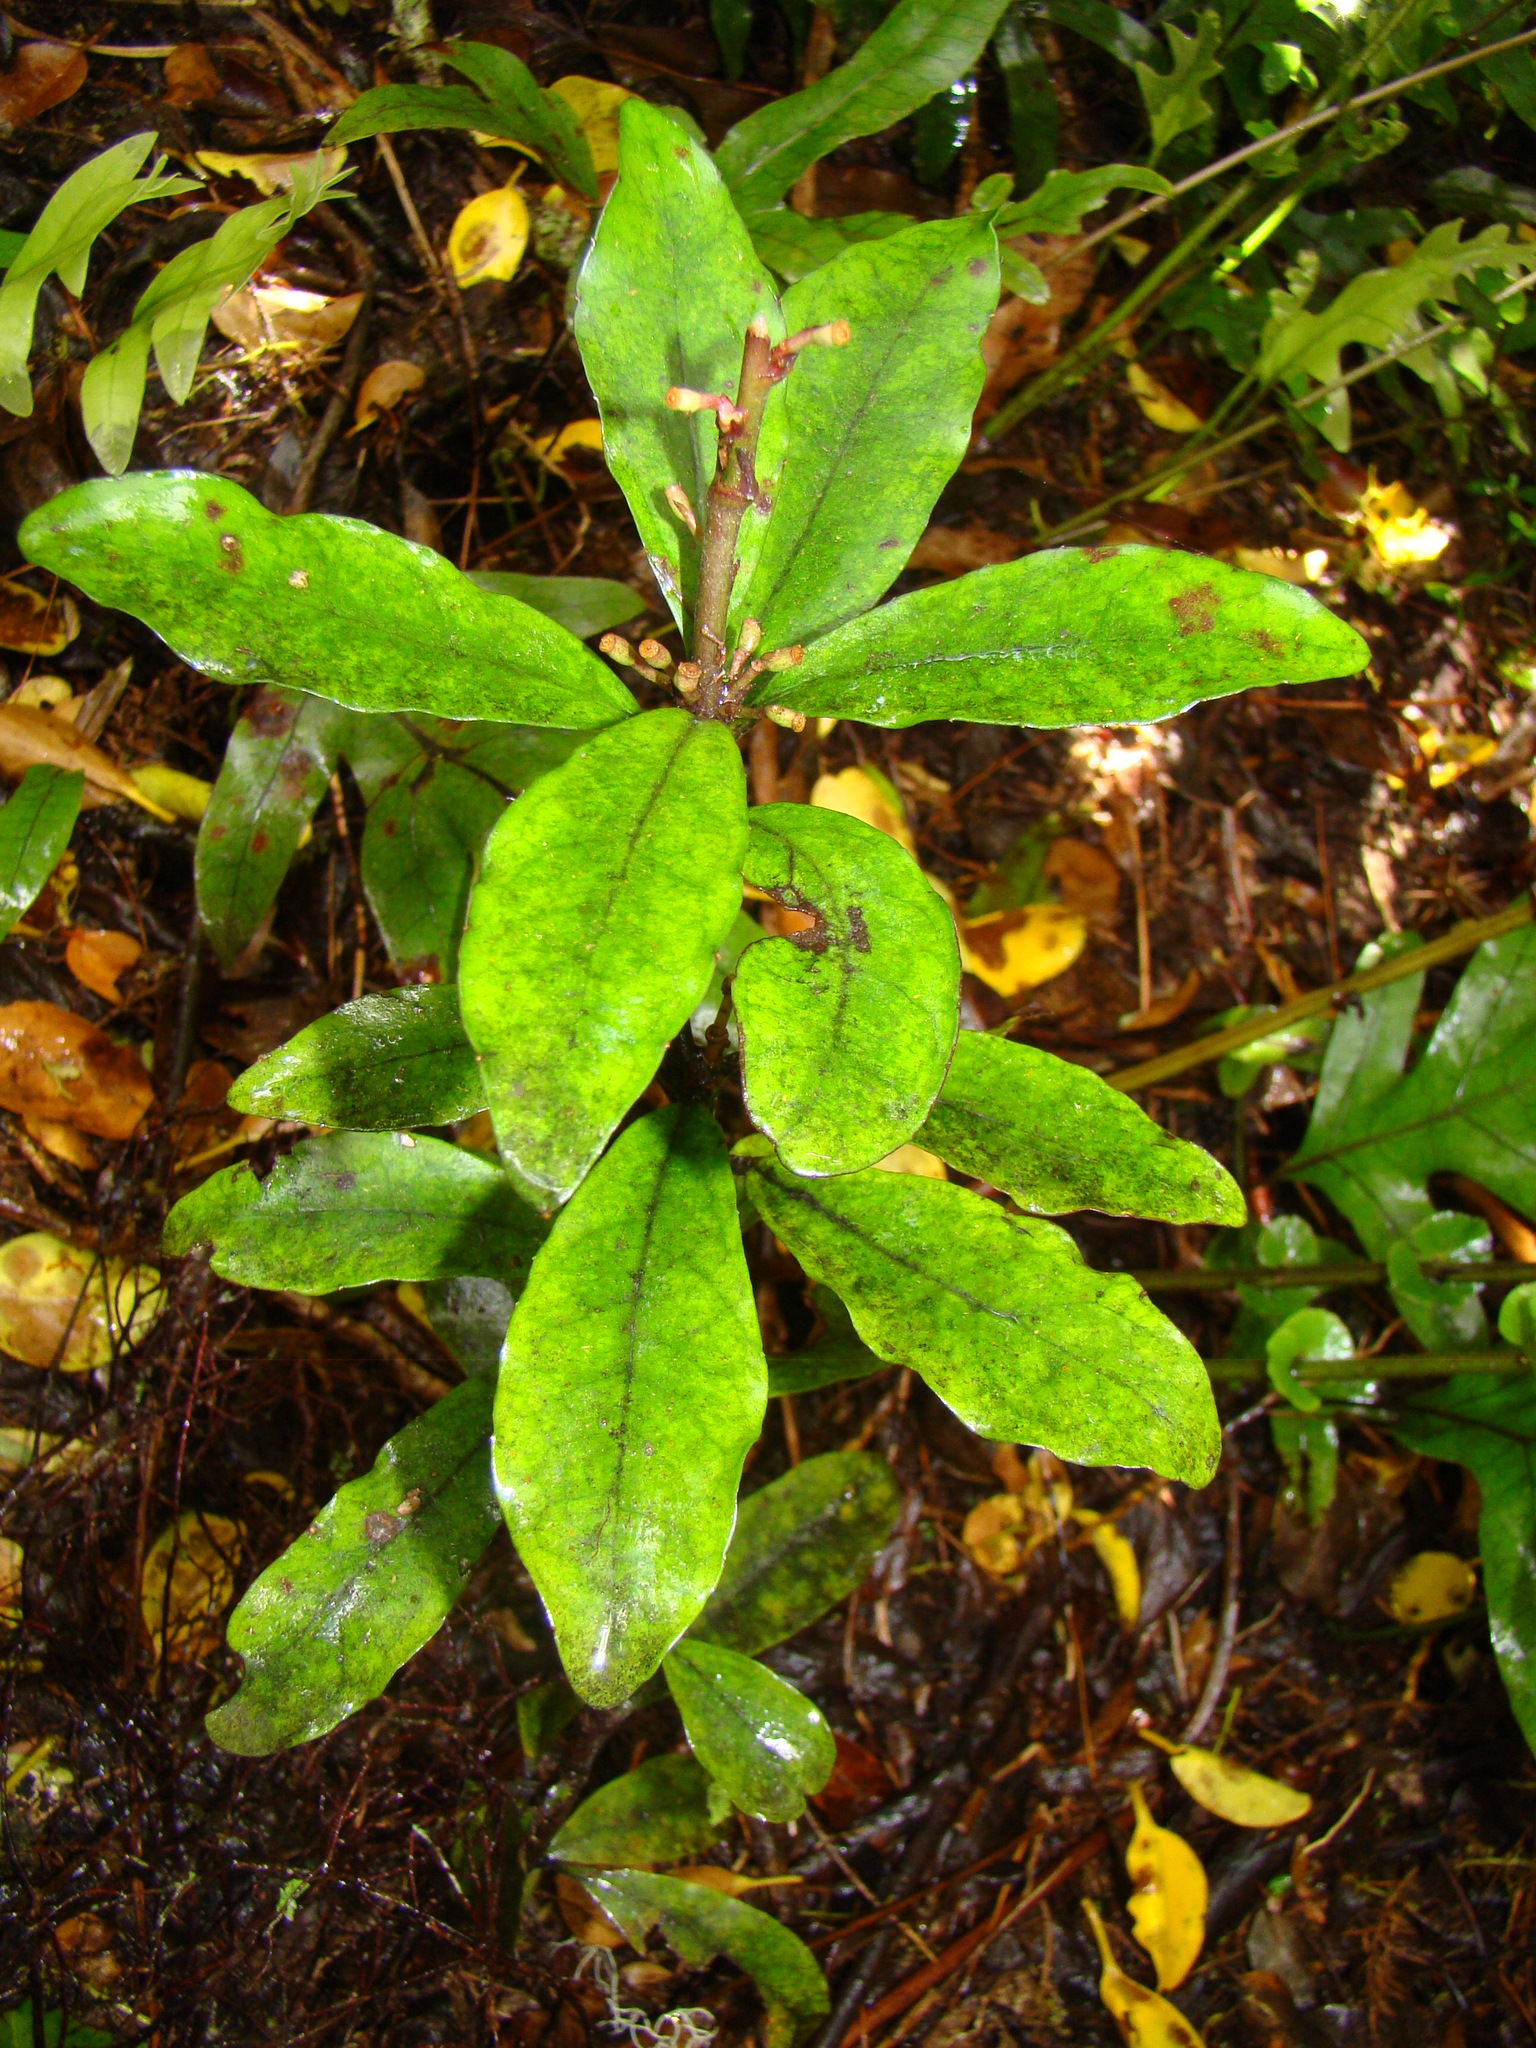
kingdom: Plantae
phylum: Tracheophyta
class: Magnoliopsida
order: Asterales
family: Alseuosmiaceae
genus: Alseuosmia
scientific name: Alseuosmia pusilla
